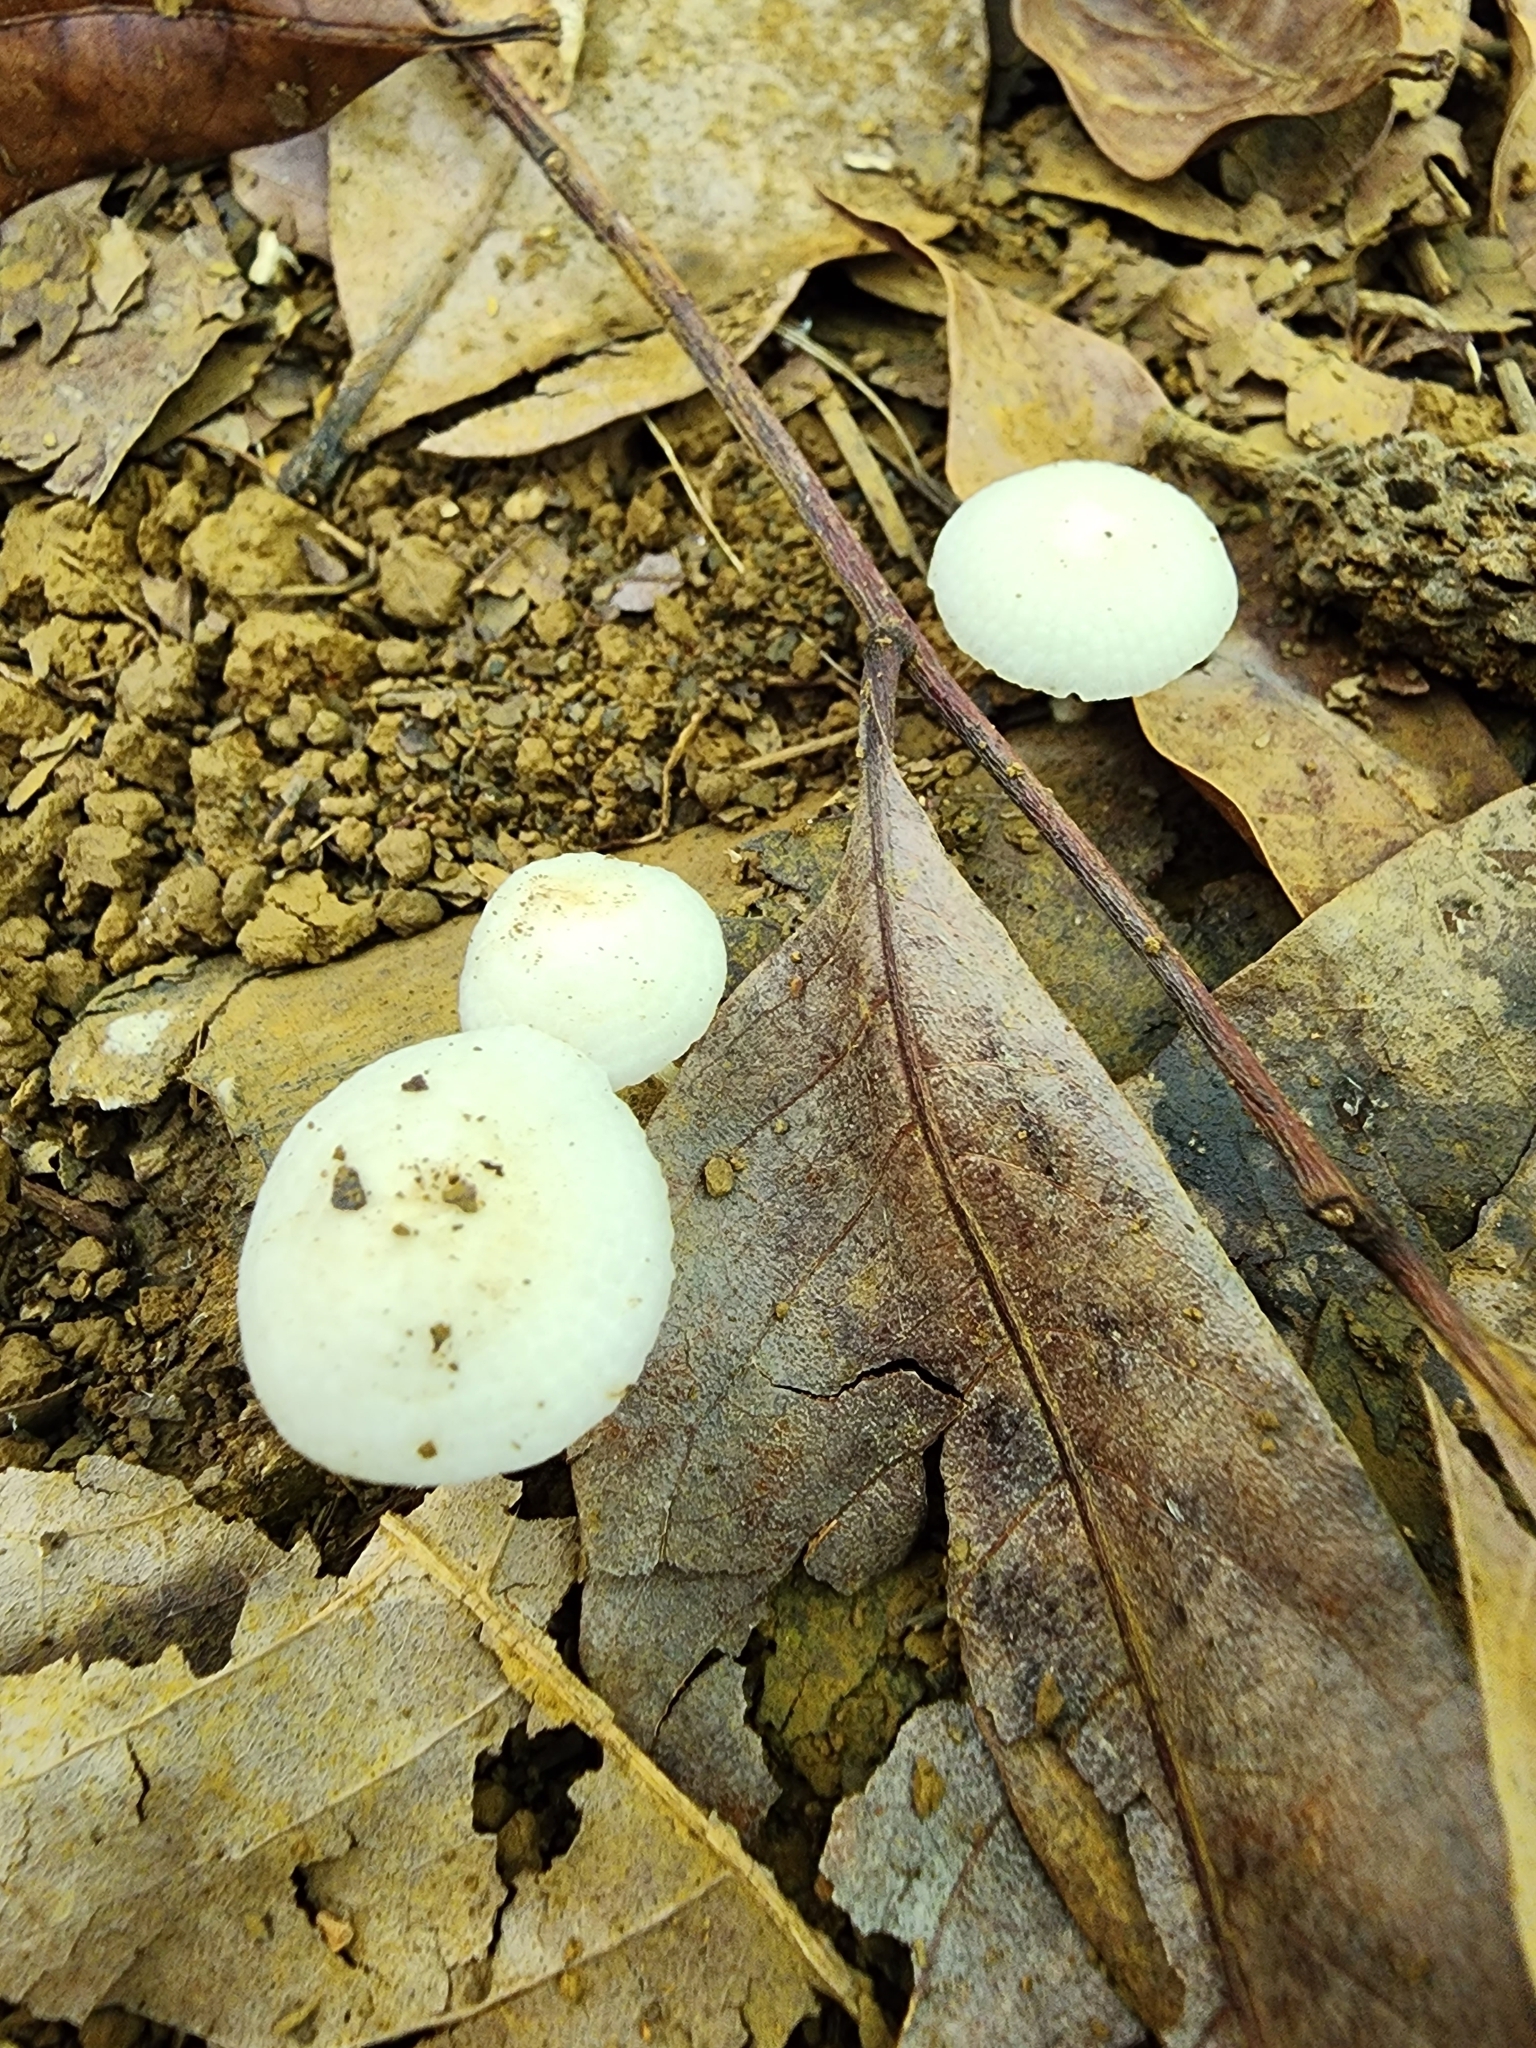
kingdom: Fungi
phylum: Basidiomycota
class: Agaricomycetes
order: Agaricales
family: Mycenaceae
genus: Filoboletus
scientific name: Filoboletus manipularis
